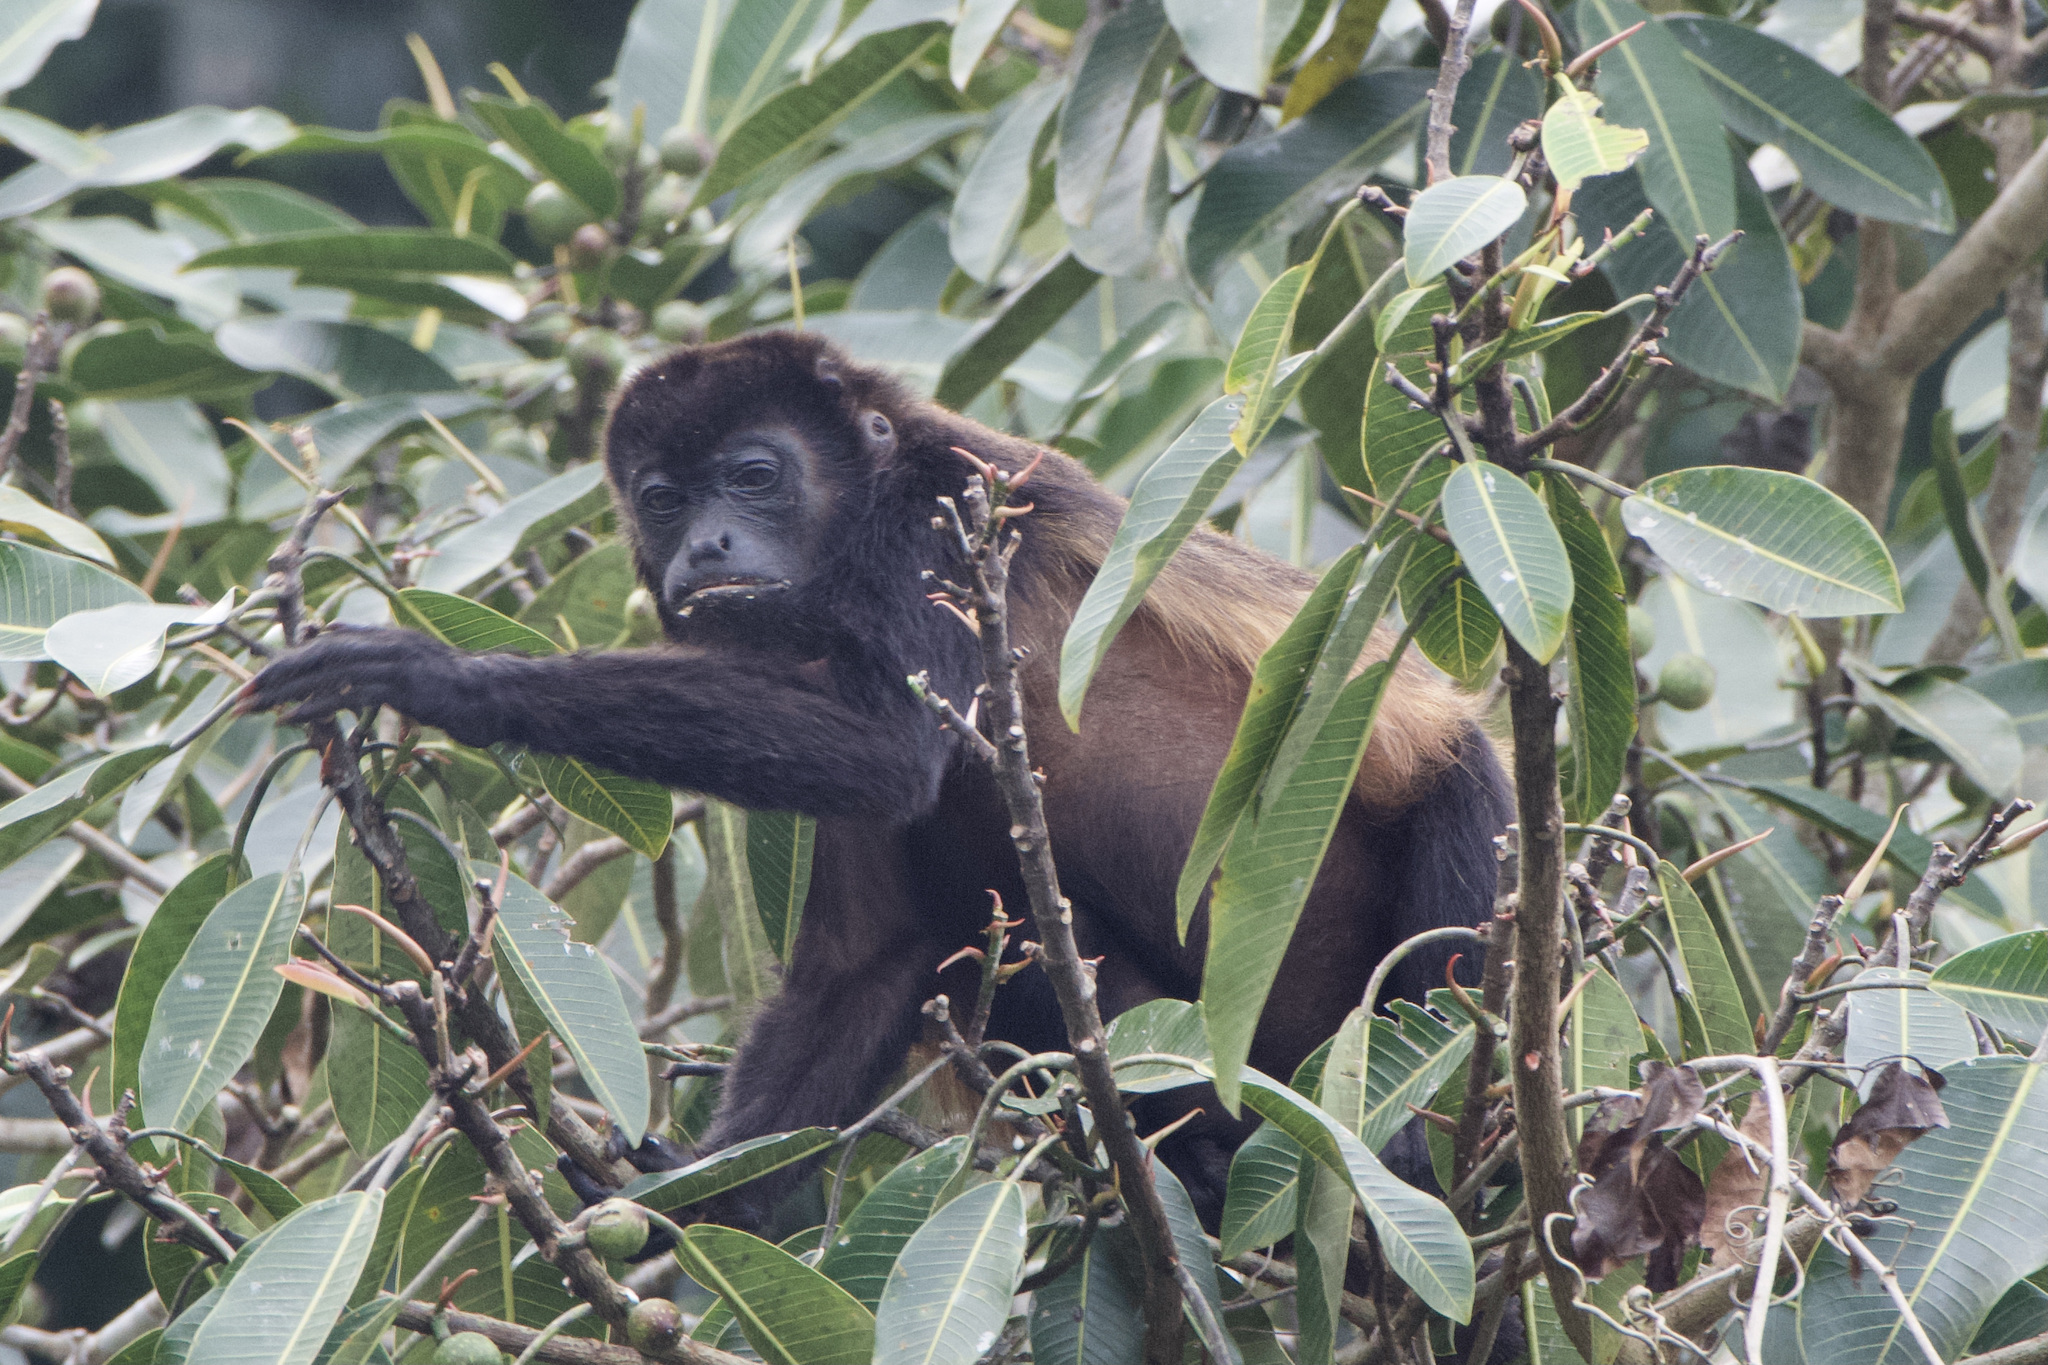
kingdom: Animalia
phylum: Chordata
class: Mammalia
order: Primates
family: Atelidae
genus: Alouatta
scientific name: Alouatta palliata
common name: Mantled howler
